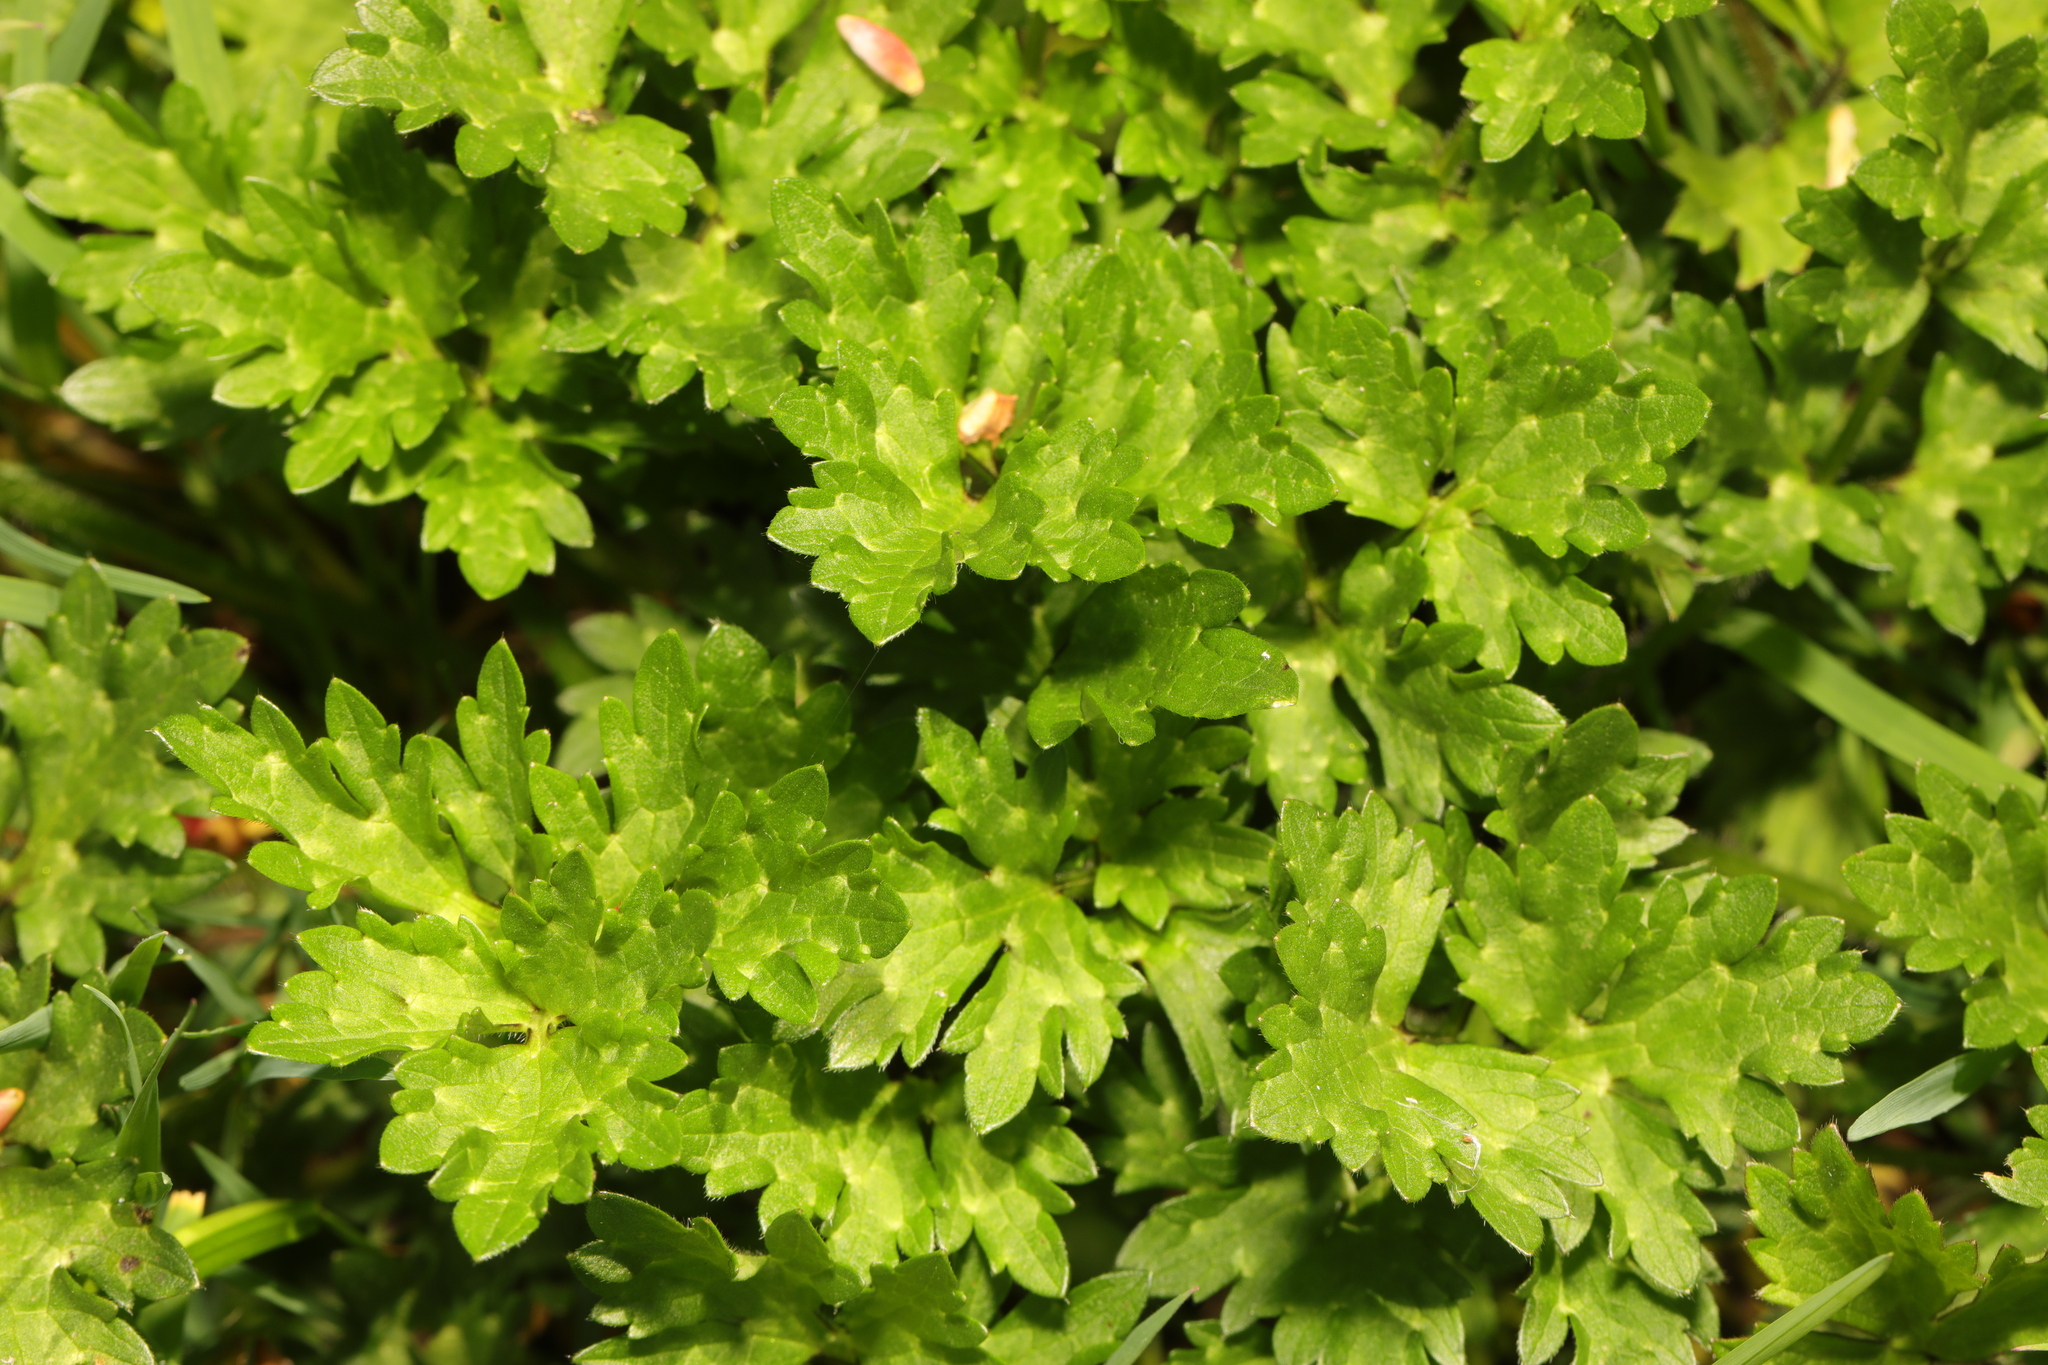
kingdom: Plantae
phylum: Tracheophyta
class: Magnoliopsida
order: Ranunculales
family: Ranunculaceae
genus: Ranunculus
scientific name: Ranunculus repens
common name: Creeping buttercup
